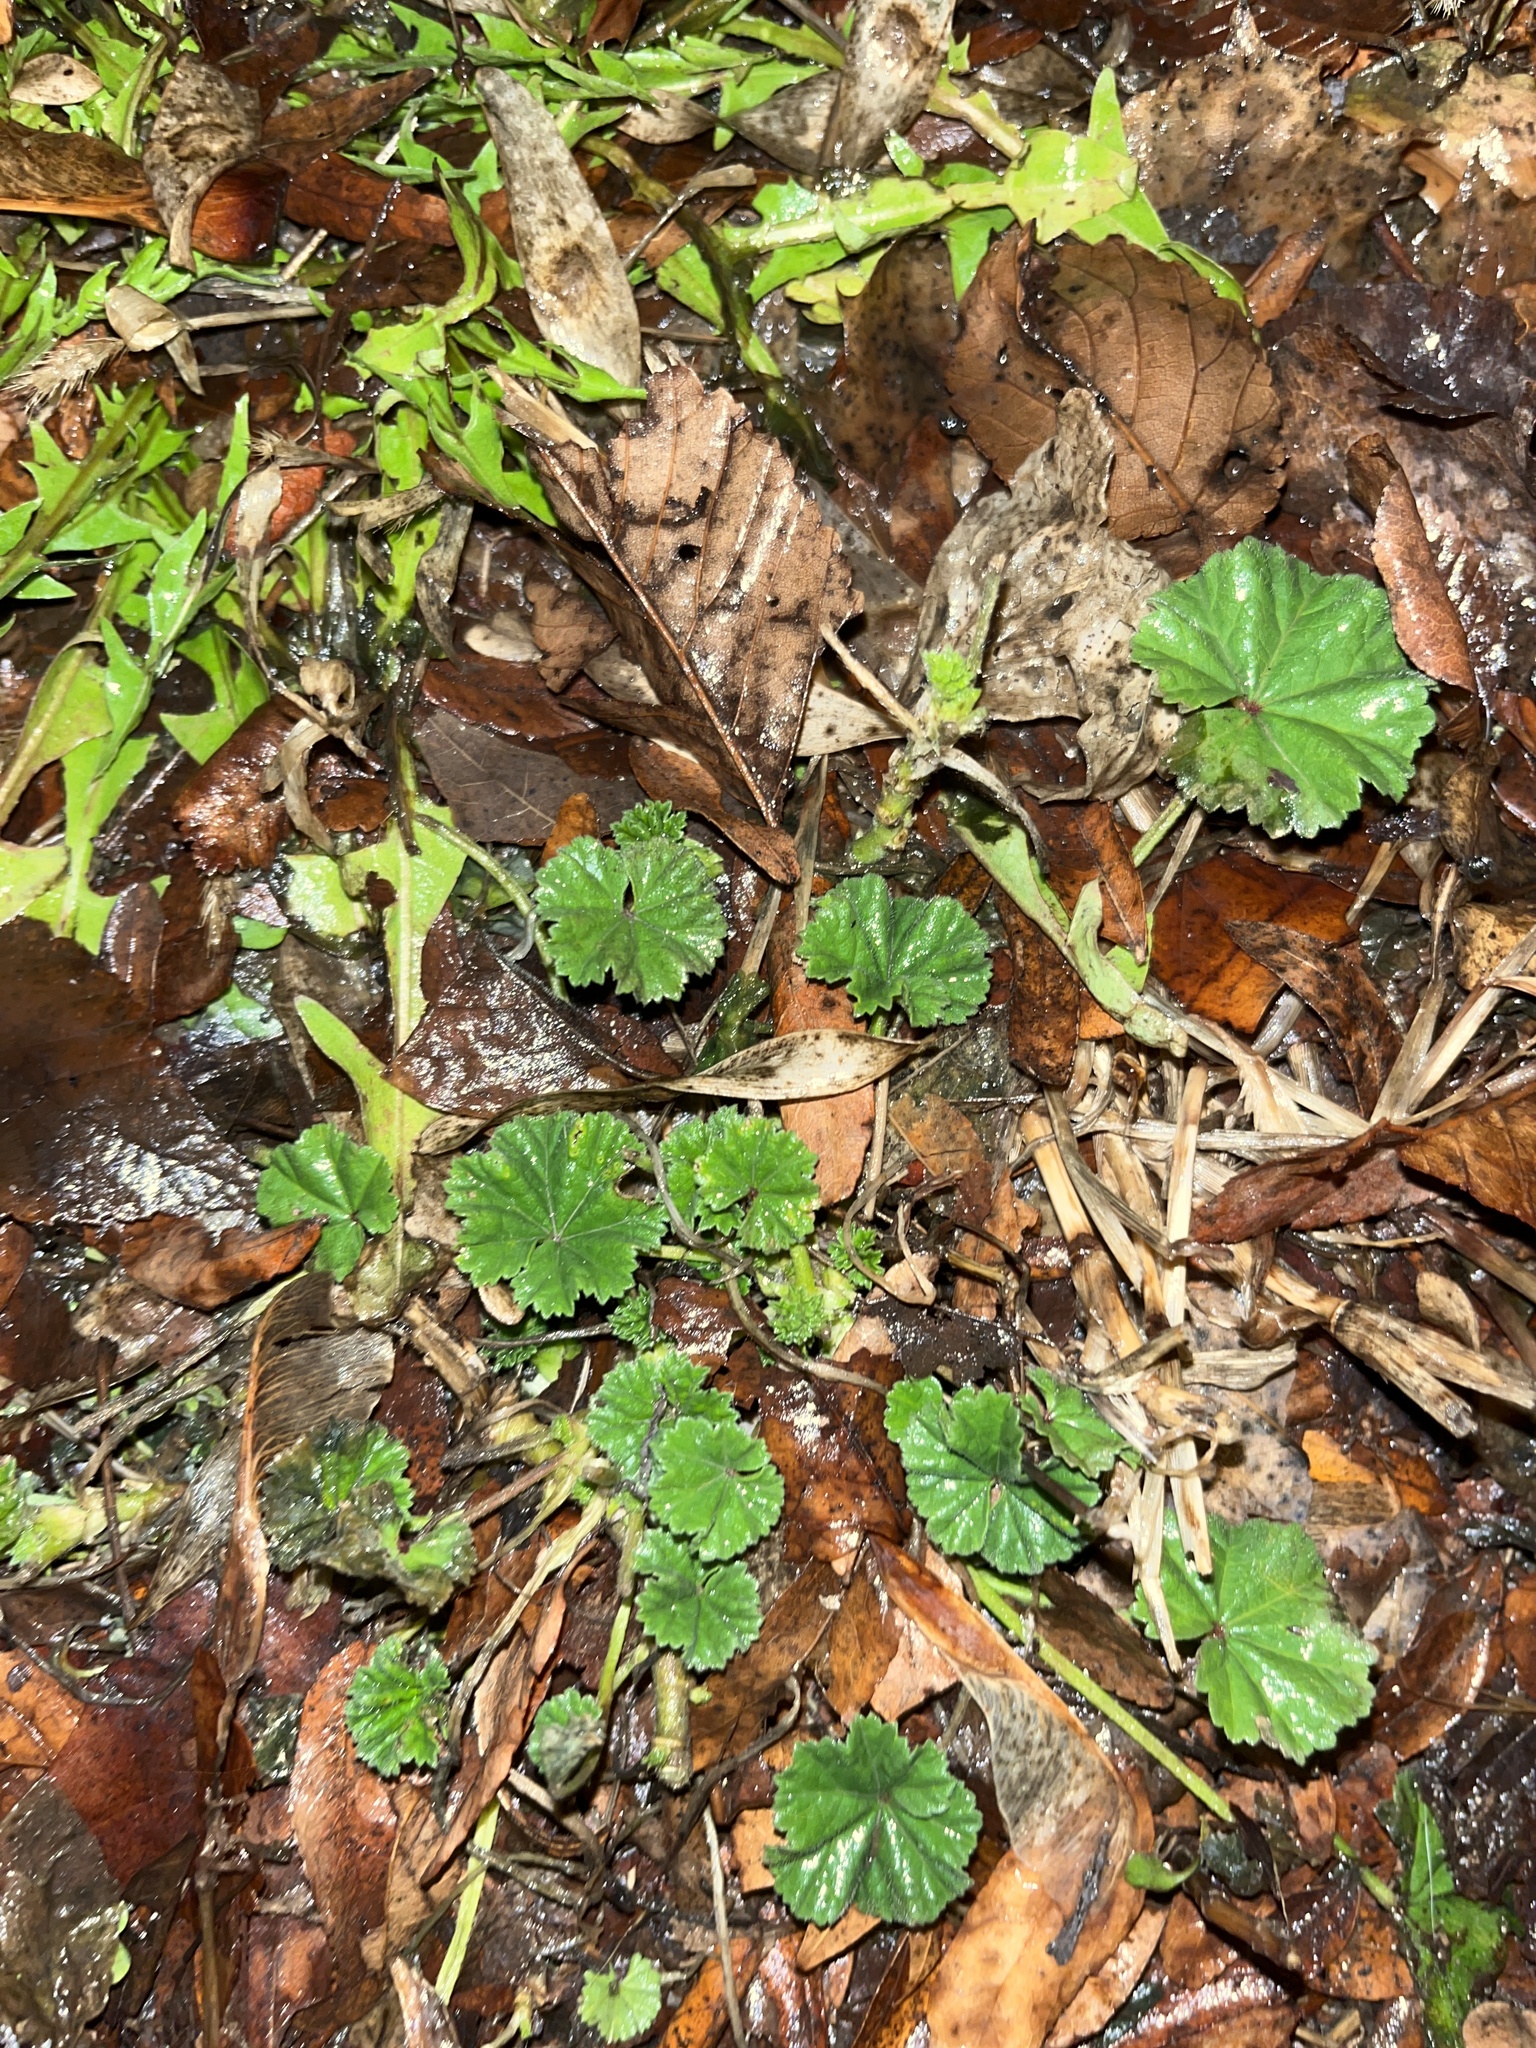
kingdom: Plantae
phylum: Tracheophyta
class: Magnoliopsida
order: Malvales
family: Malvaceae
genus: Malva
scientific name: Malva neglecta
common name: Common mallow
